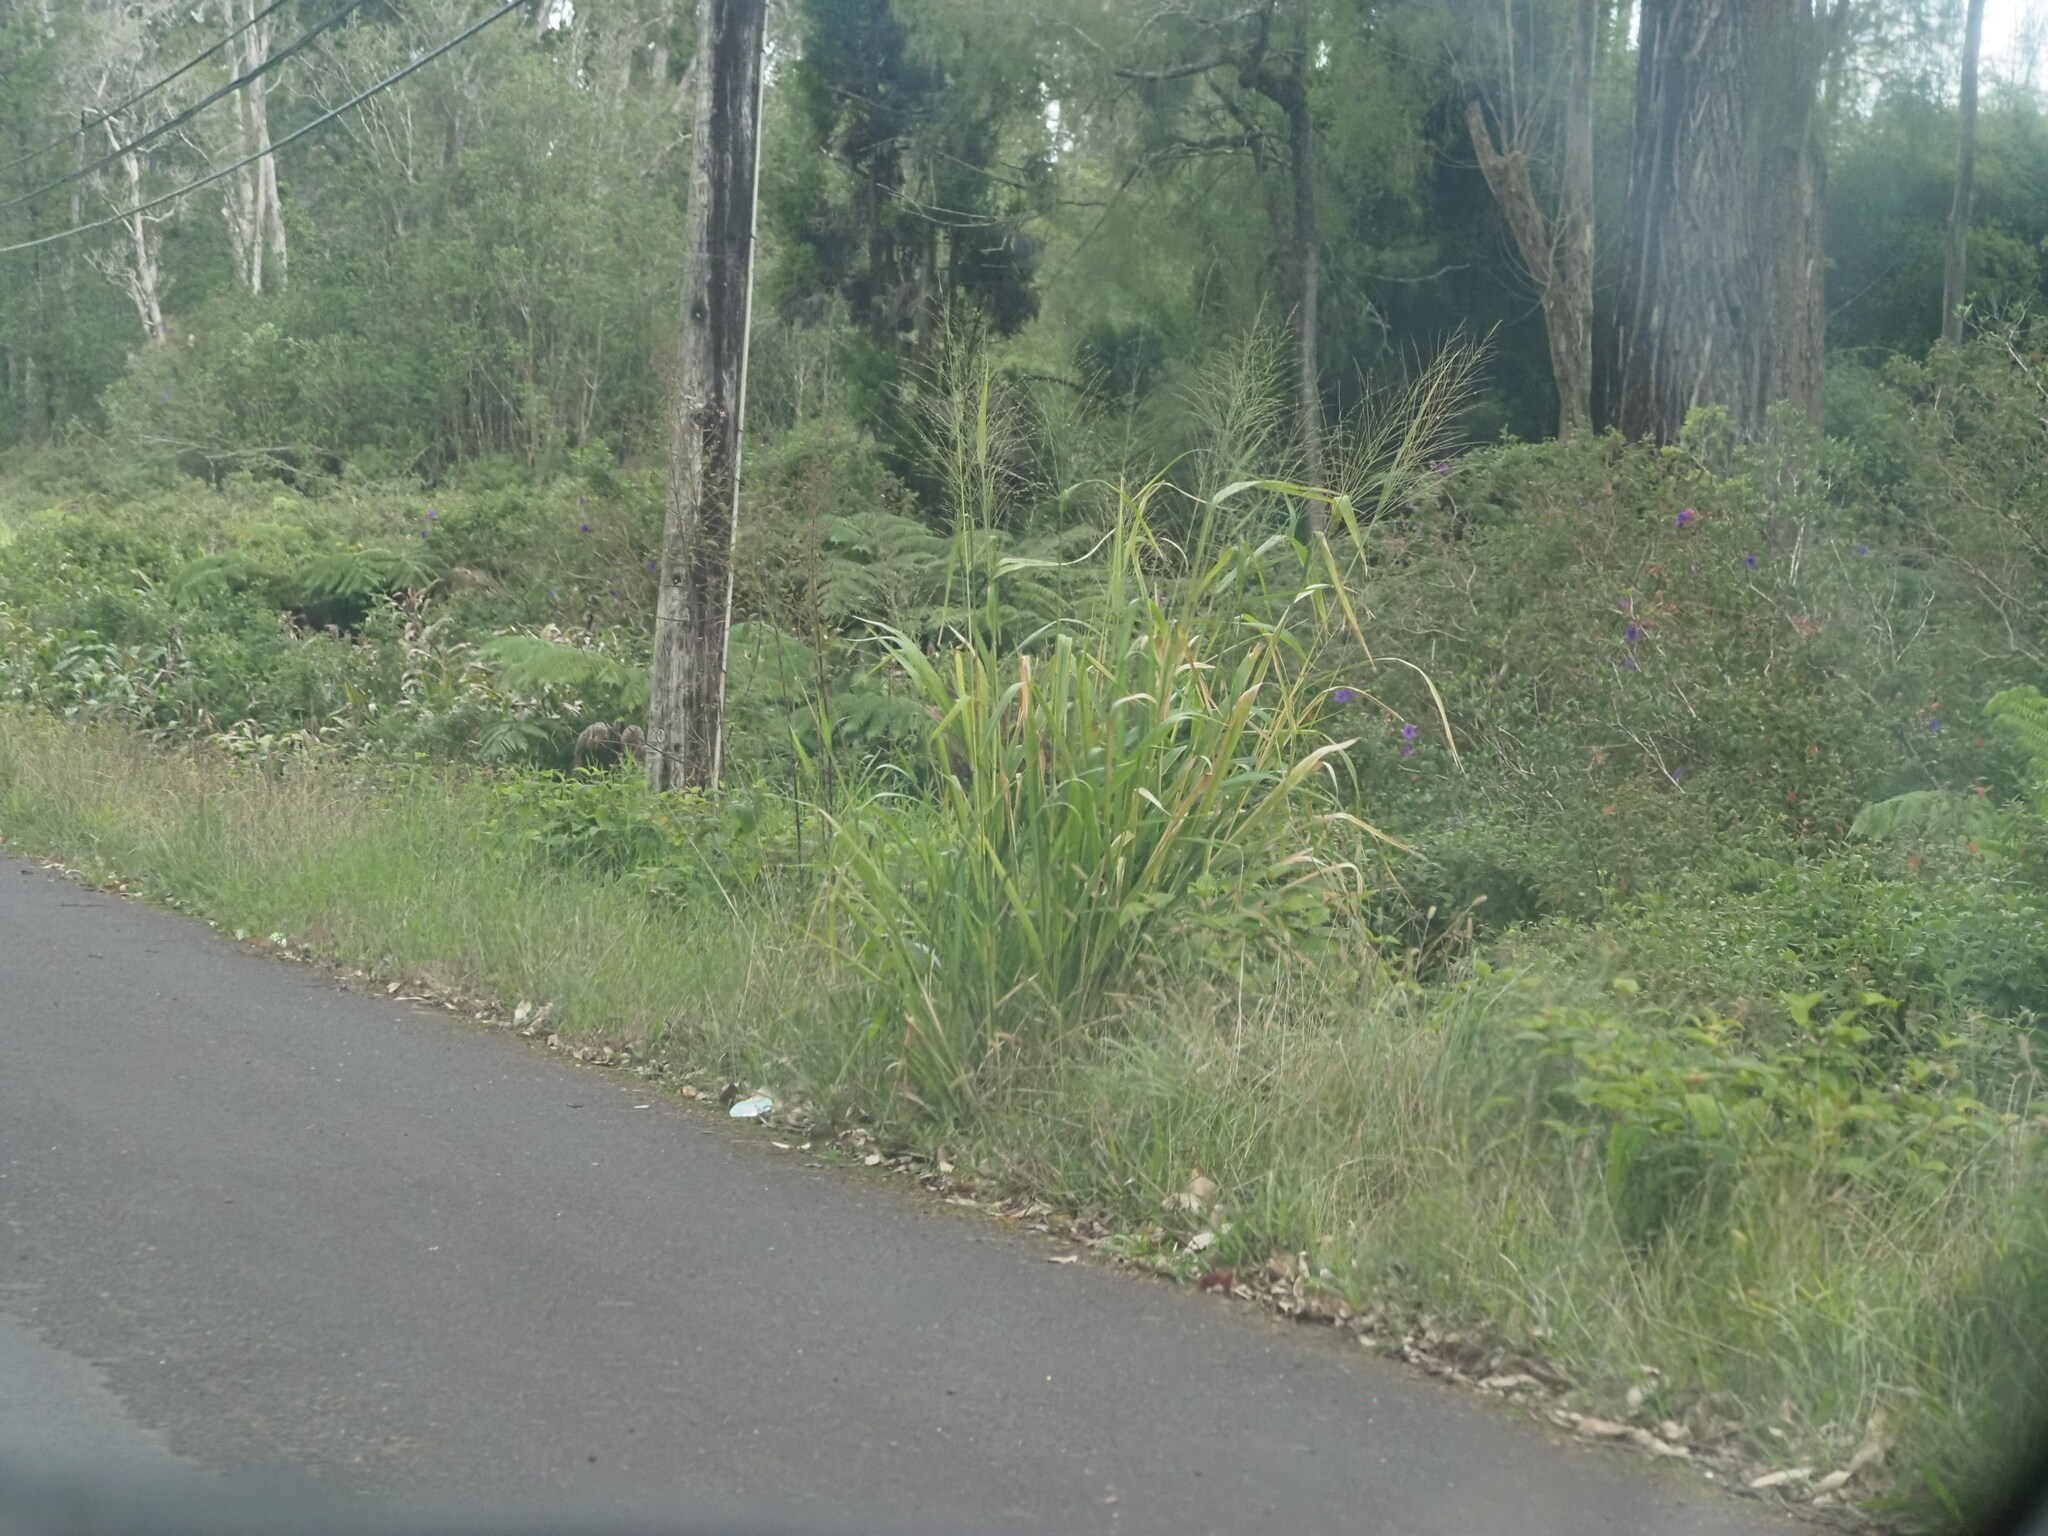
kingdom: Plantae
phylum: Tracheophyta
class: Liliopsida
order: Poales
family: Poaceae
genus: Megathyrsus
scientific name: Megathyrsus maximus
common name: Guineagrass
